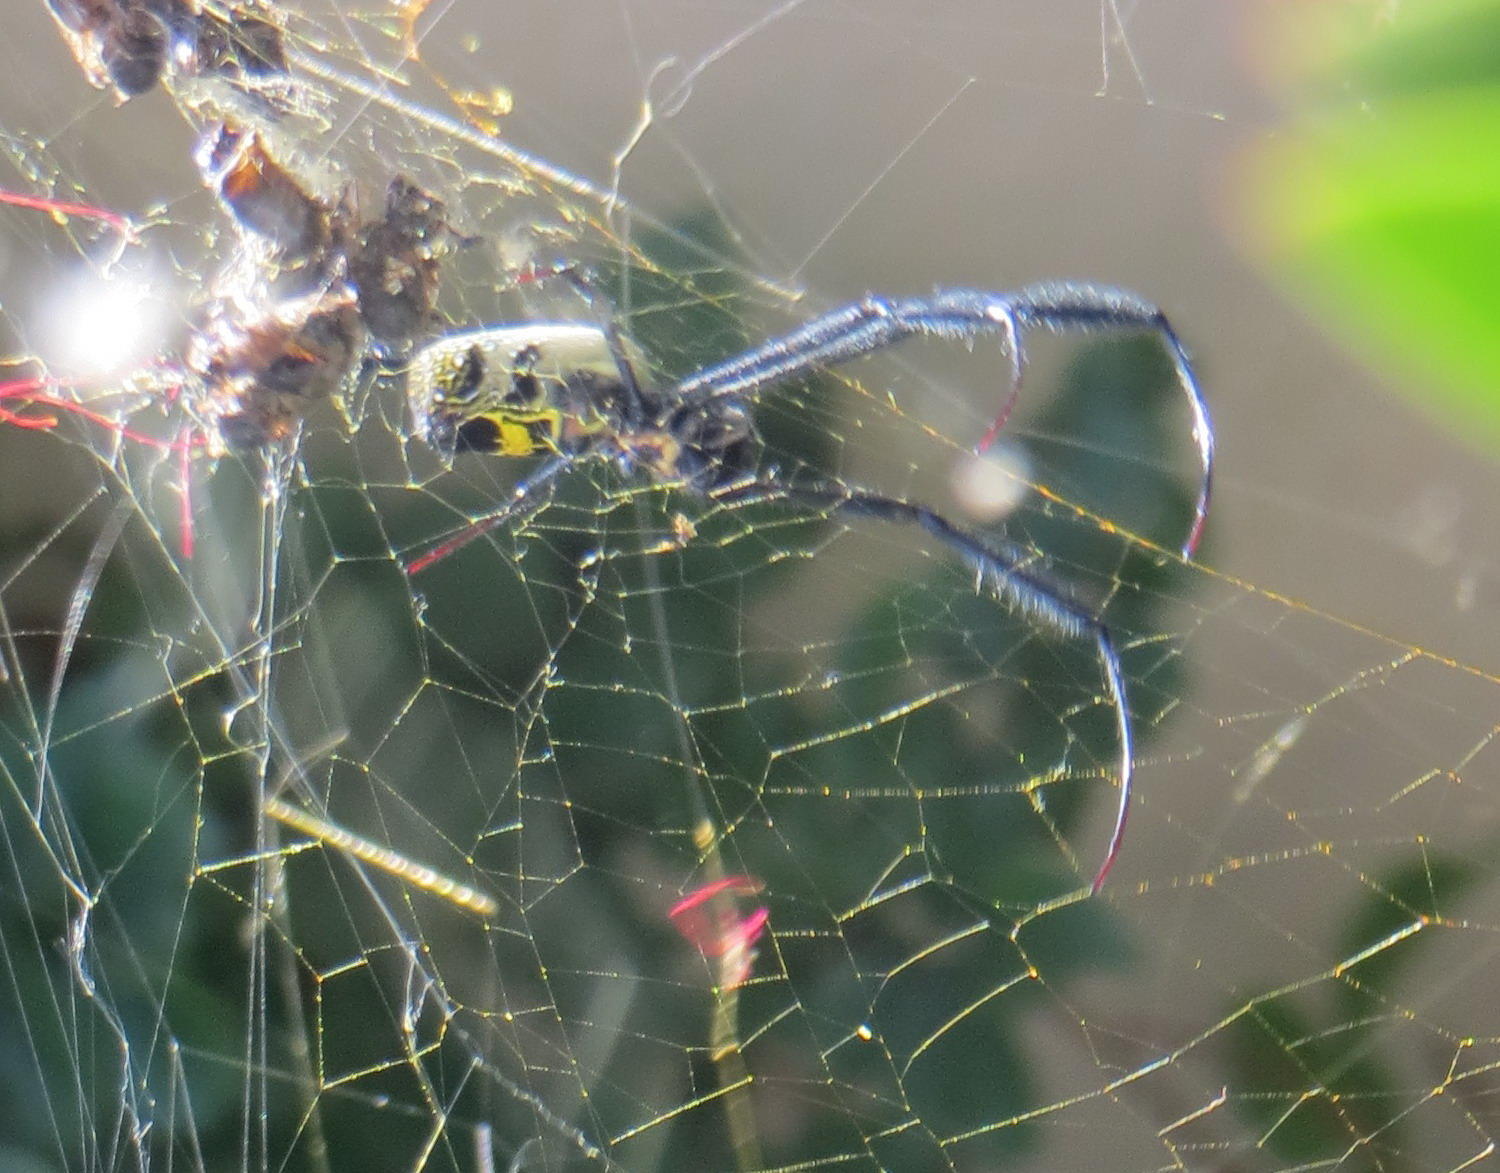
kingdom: Animalia
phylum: Arthropoda
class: Arachnida
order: Araneae
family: Araneidae
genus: Trichonephila
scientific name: Trichonephila fenestrata
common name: Hairy golden orb weaver
